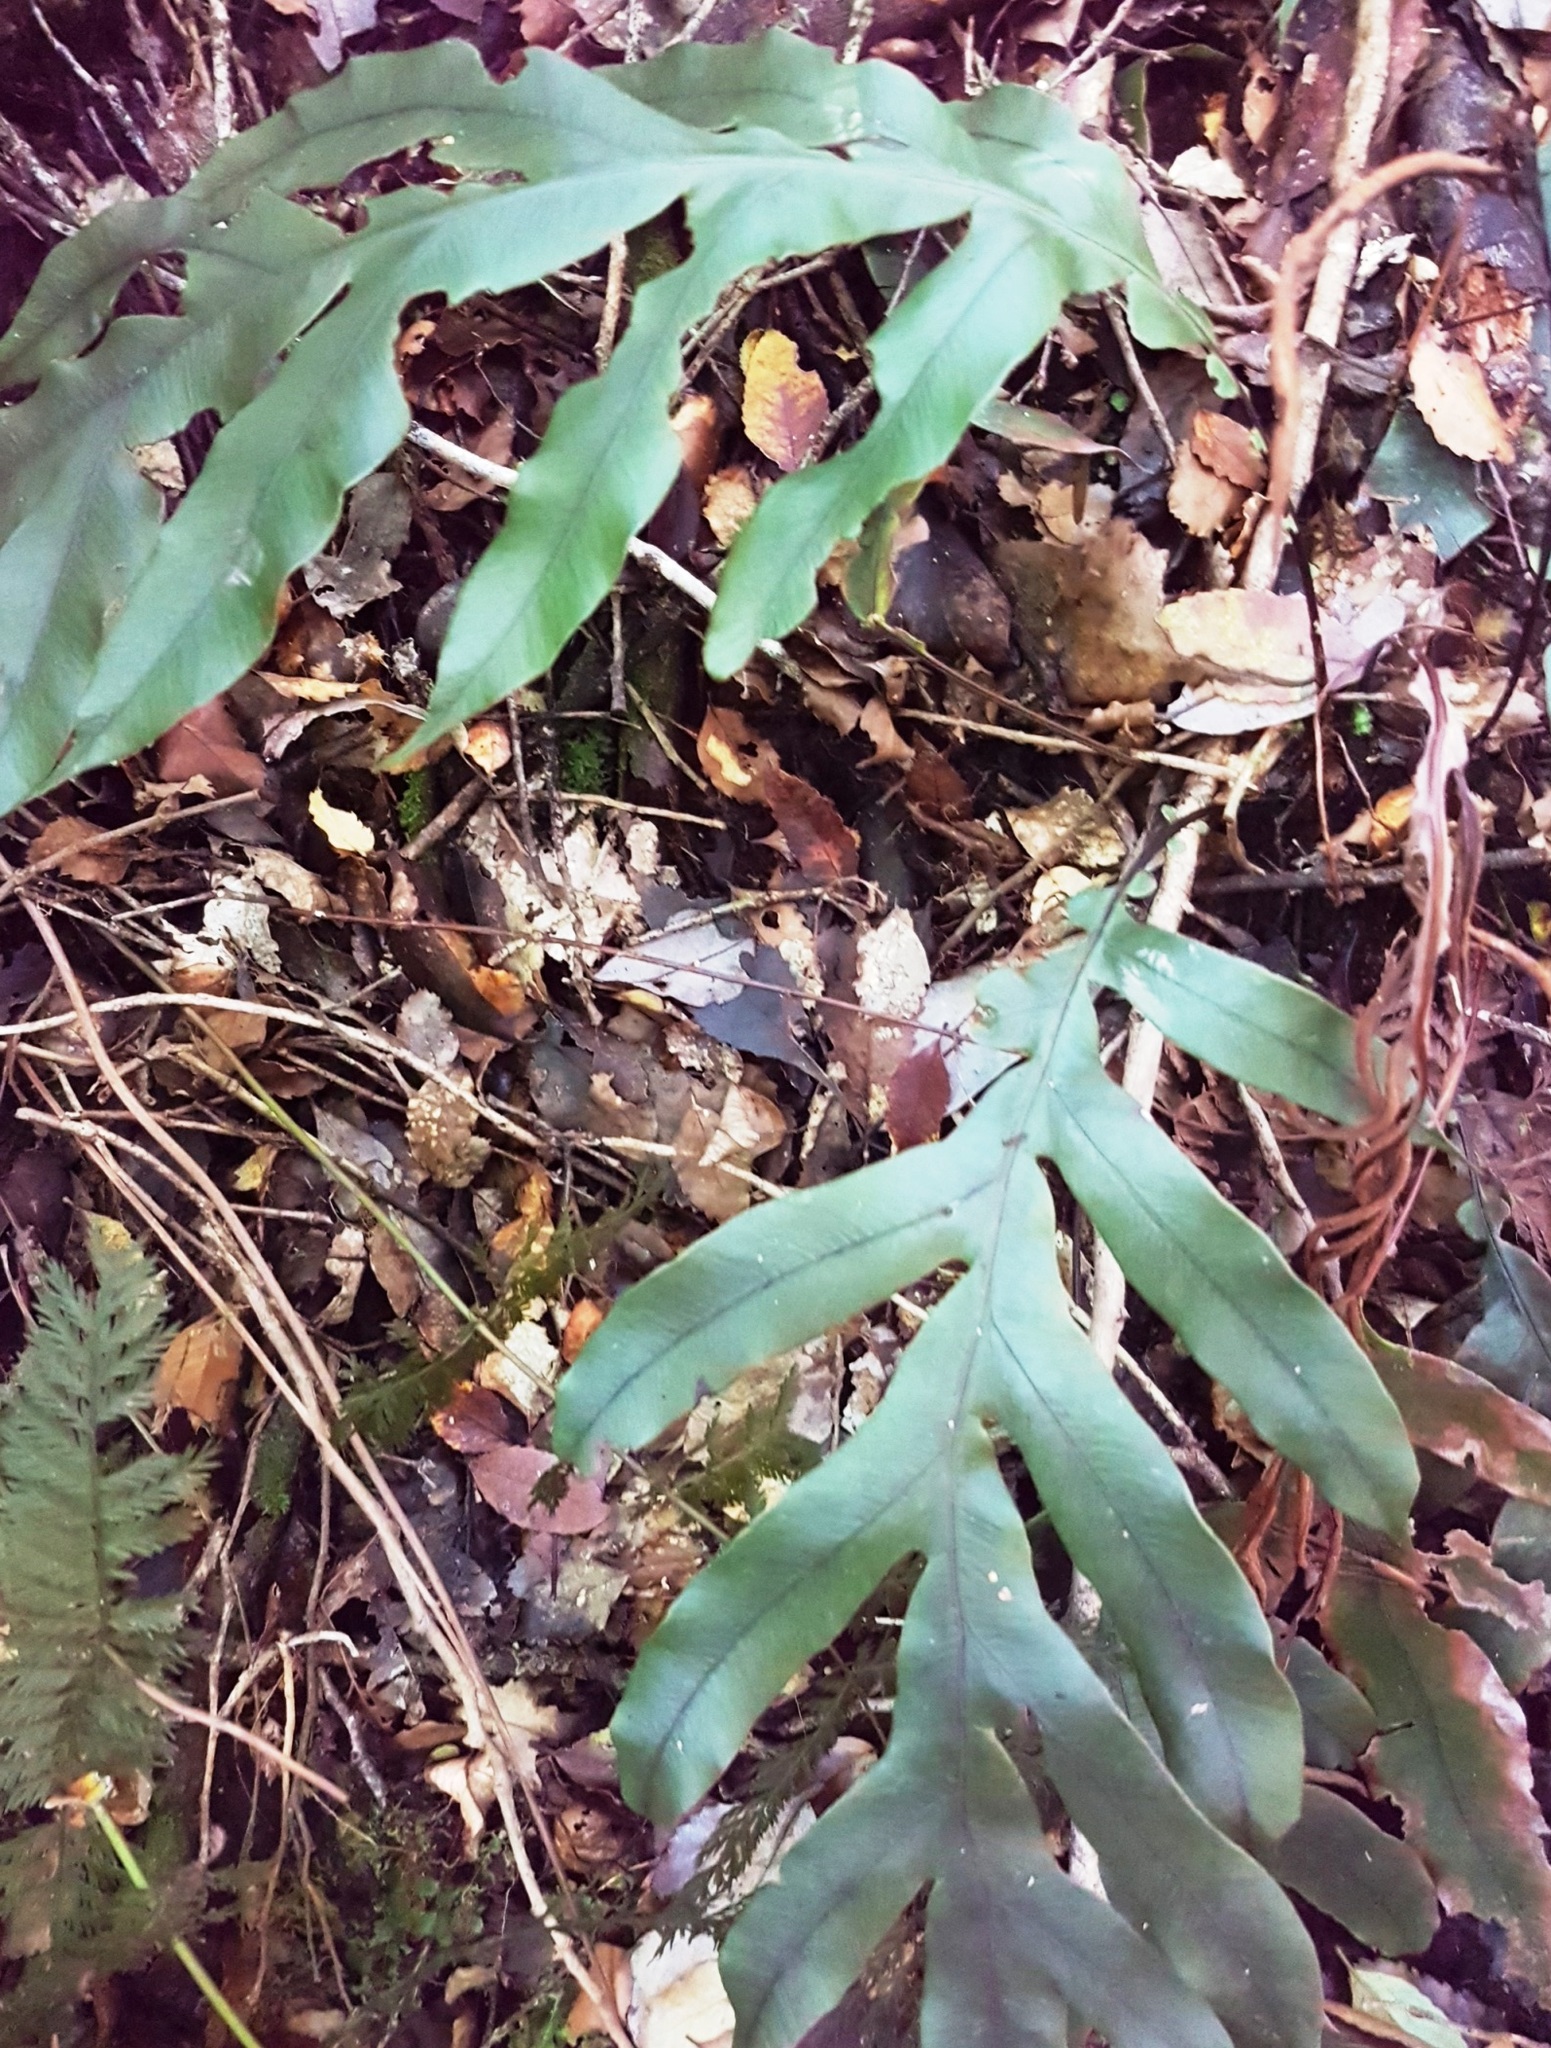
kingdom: Plantae
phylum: Tracheophyta
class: Polypodiopsida
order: Polypodiales
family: Blechnaceae
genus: Austroblechnum
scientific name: Austroblechnum colensoi
